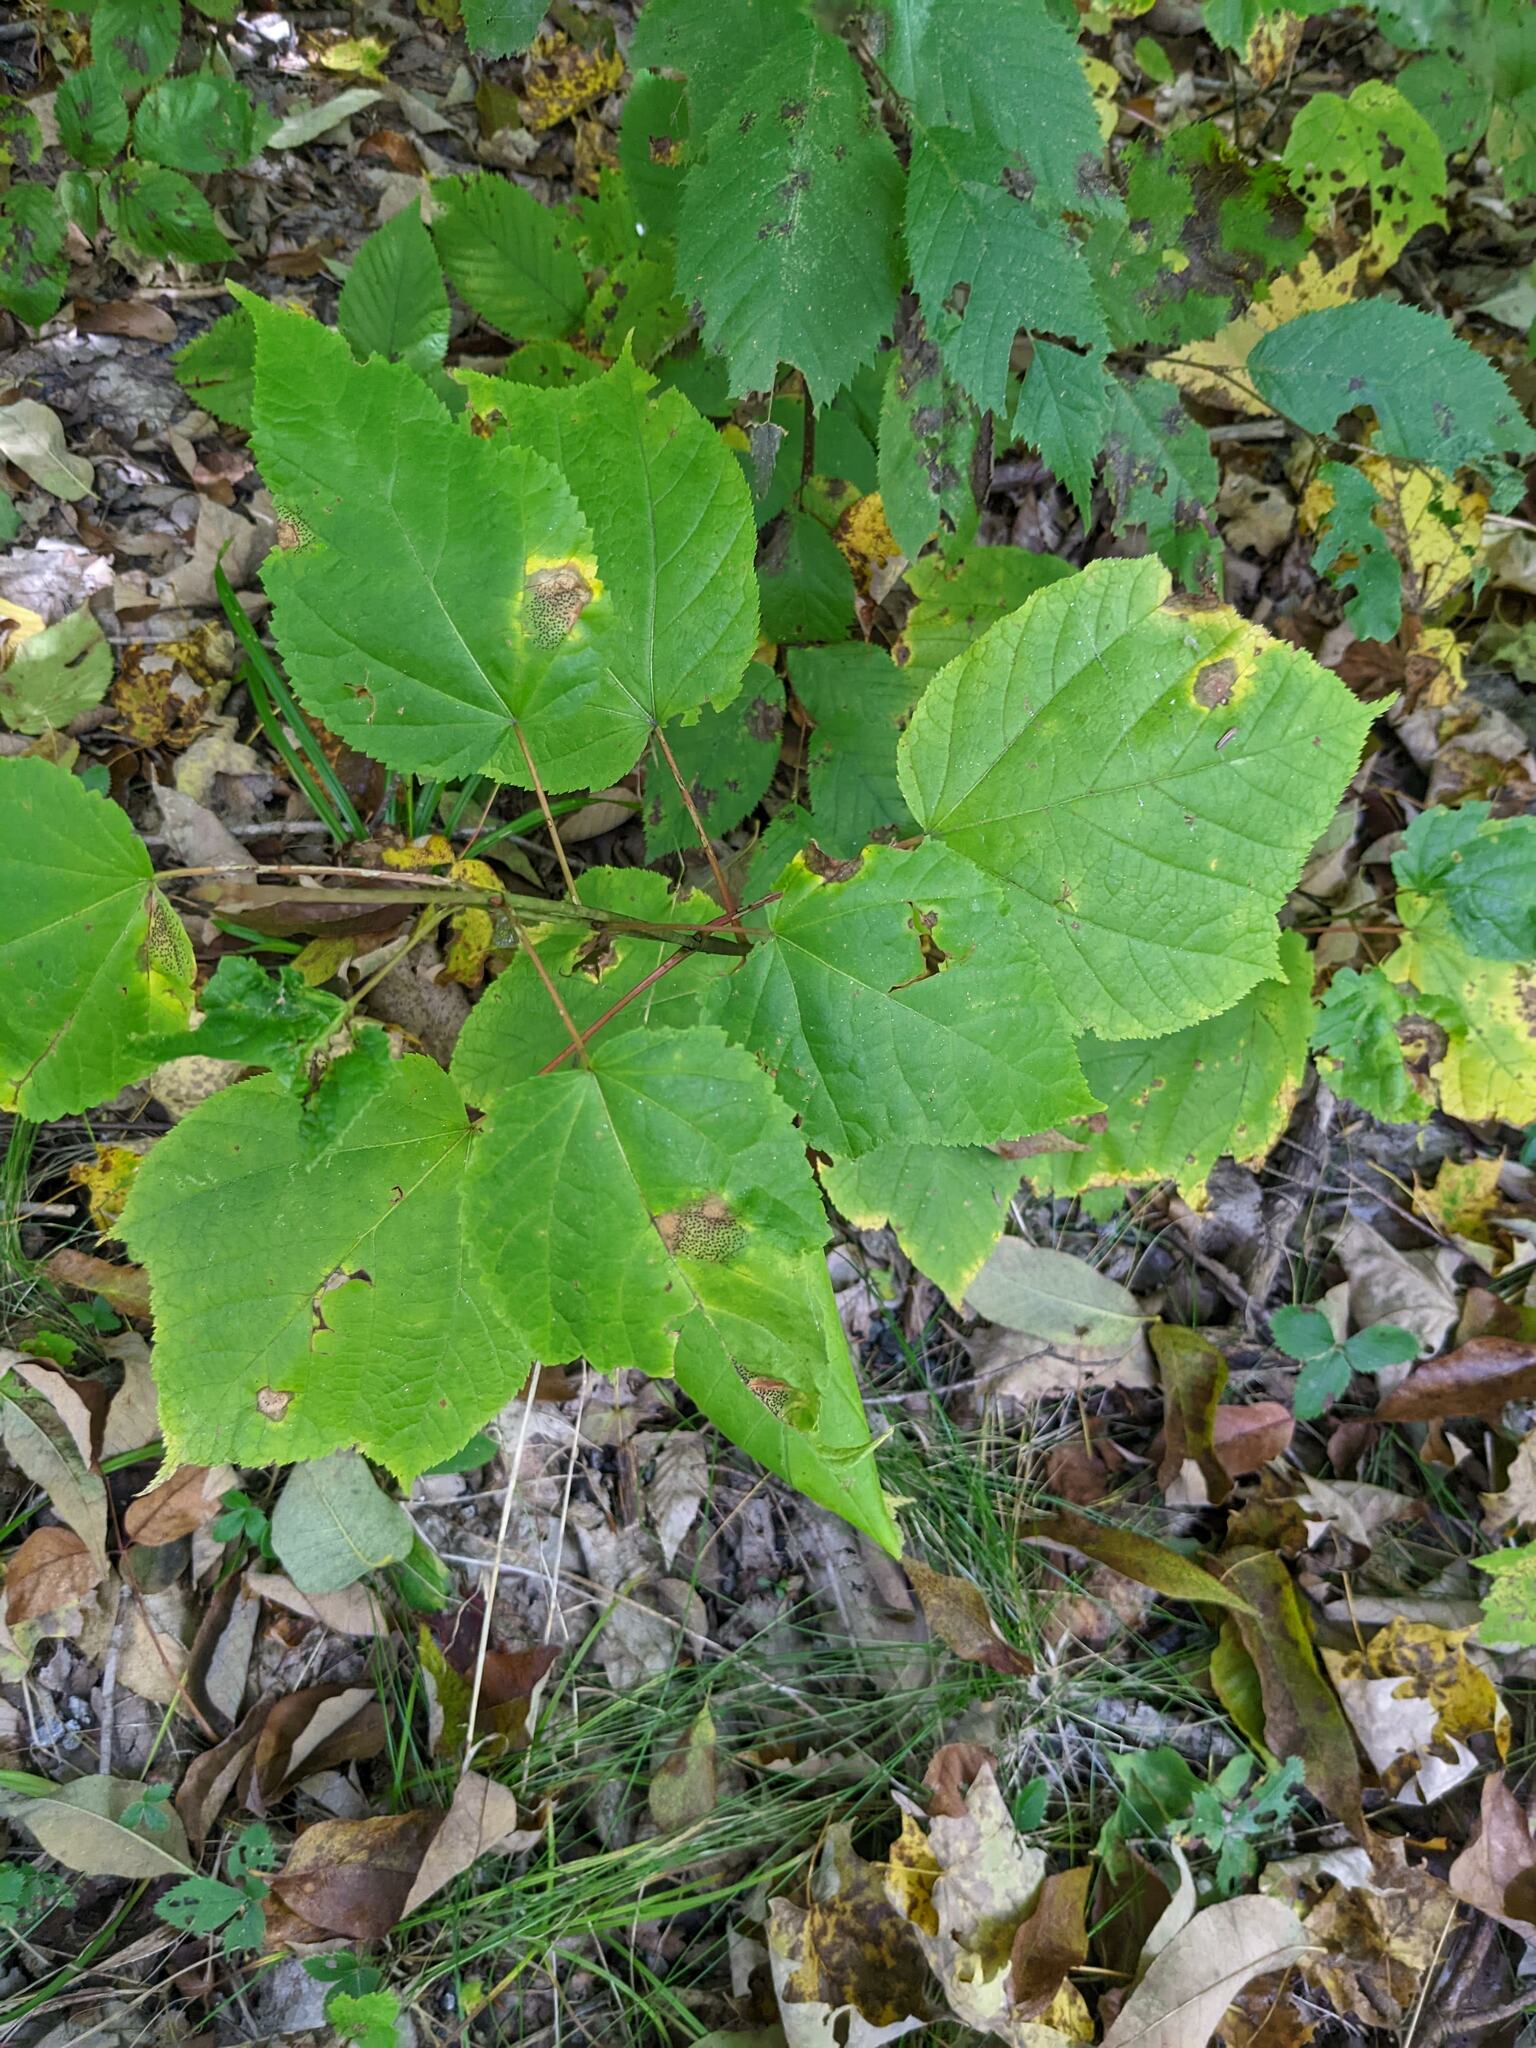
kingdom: Plantae
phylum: Tracheophyta
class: Magnoliopsida
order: Sapindales
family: Sapindaceae
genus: Acer
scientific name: Acer pensylvanicum
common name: Moosewood
